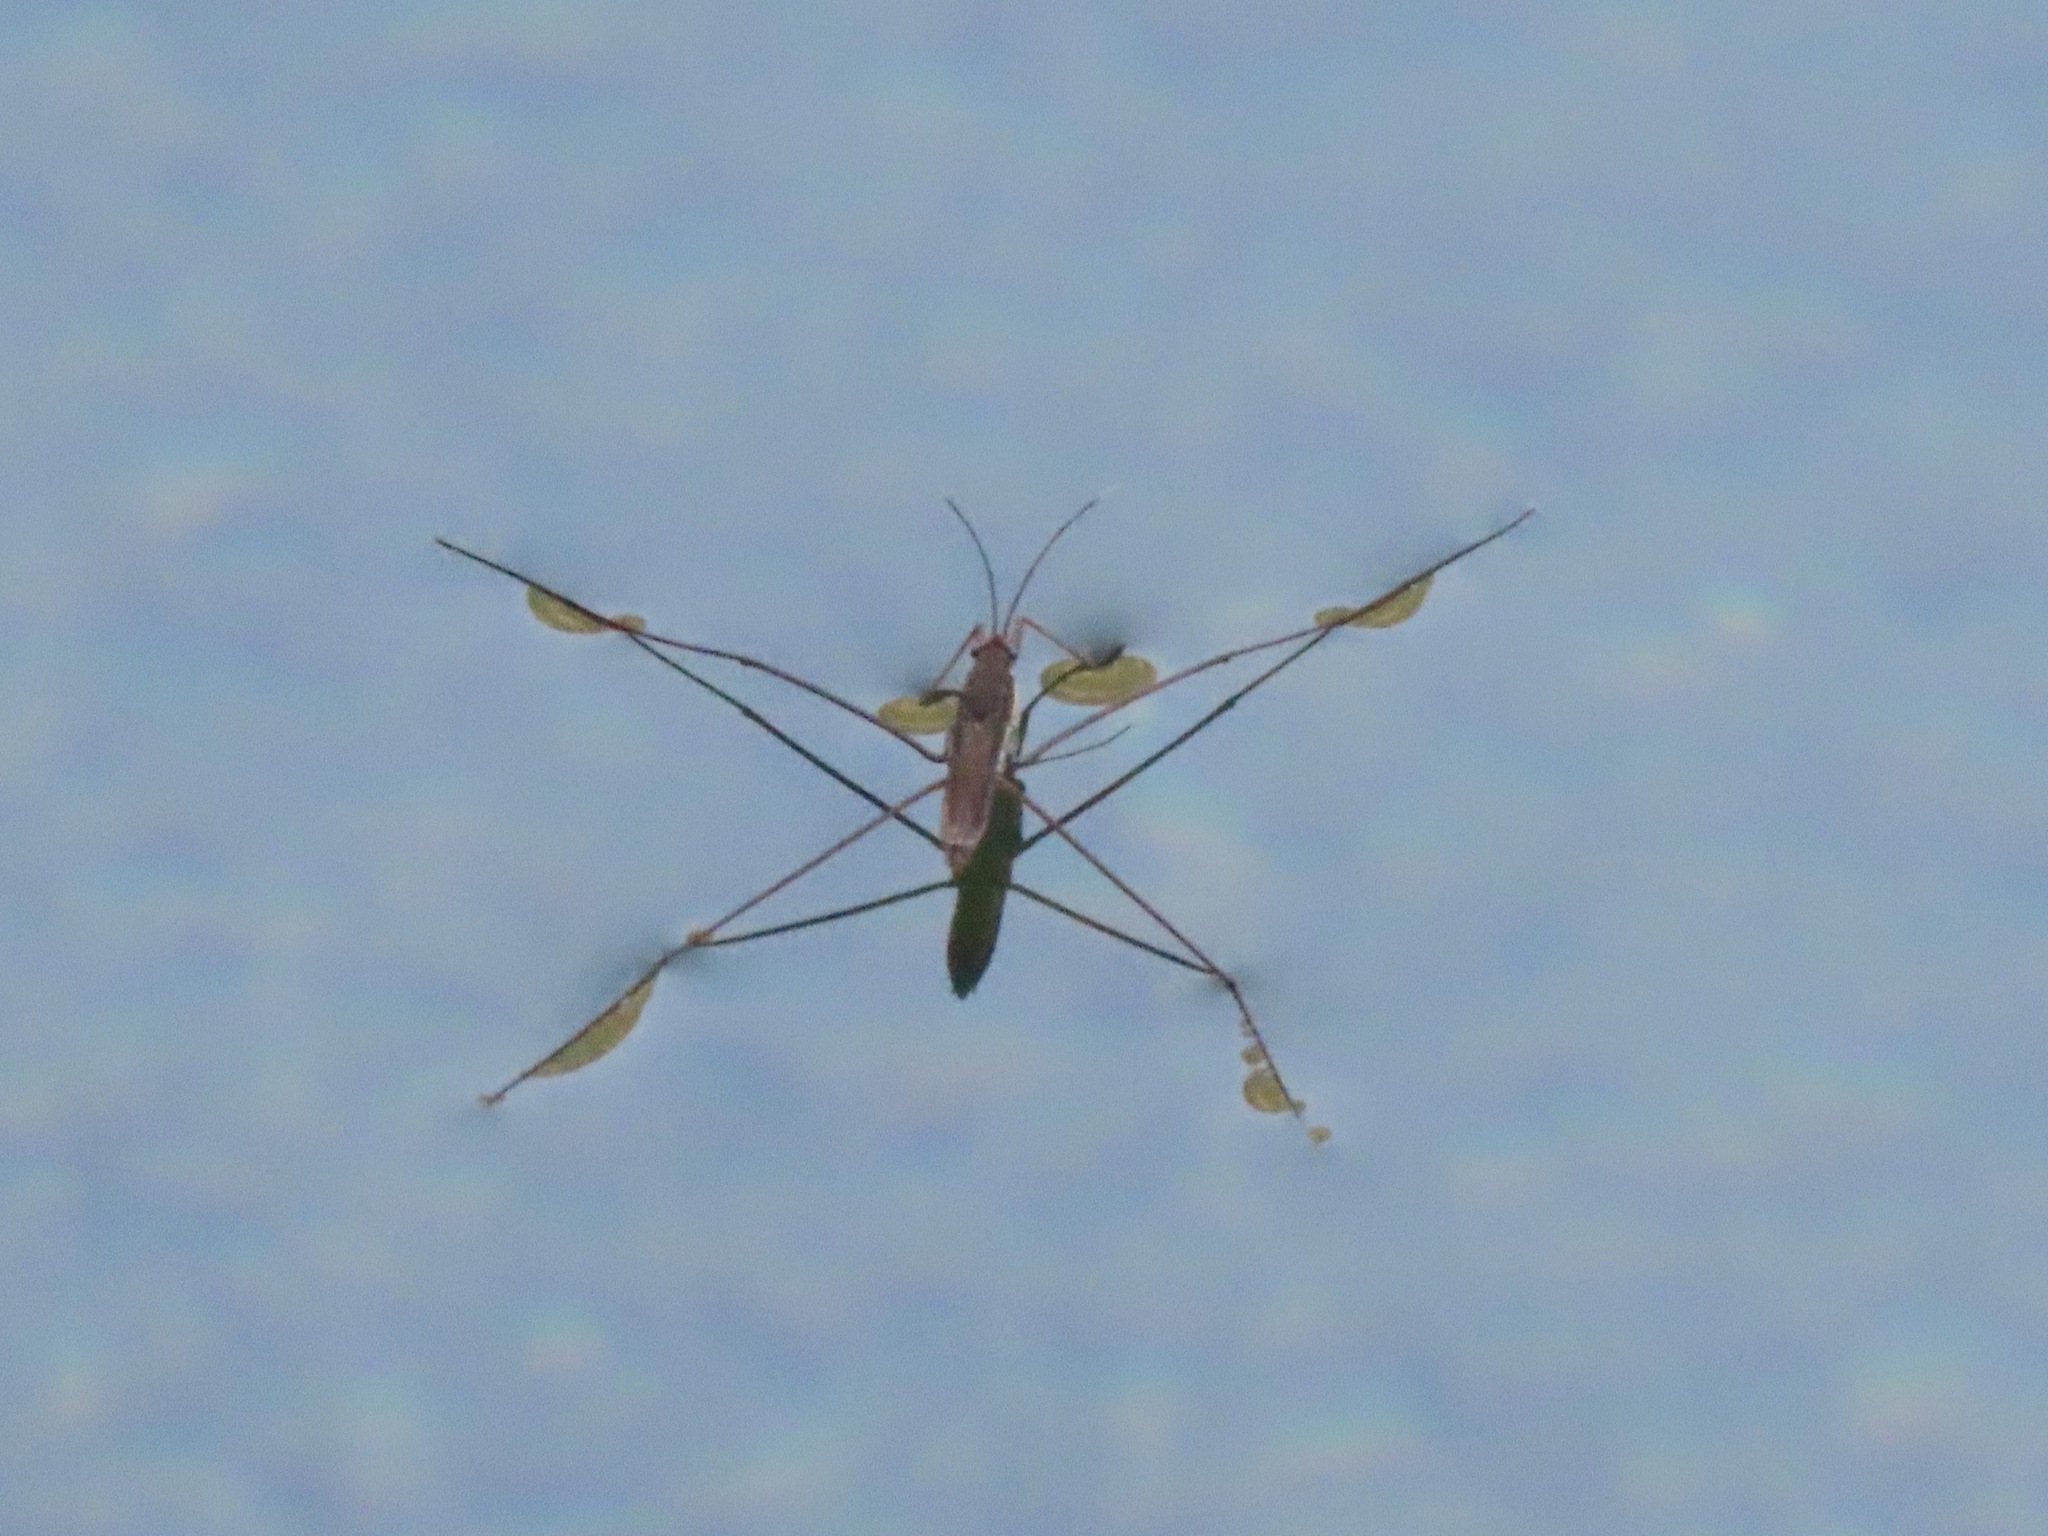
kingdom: Animalia
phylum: Arthropoda
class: Insecta
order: Hemiptera
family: Gerridae
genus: Limnoporus
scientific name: Limnoporus notabilis
